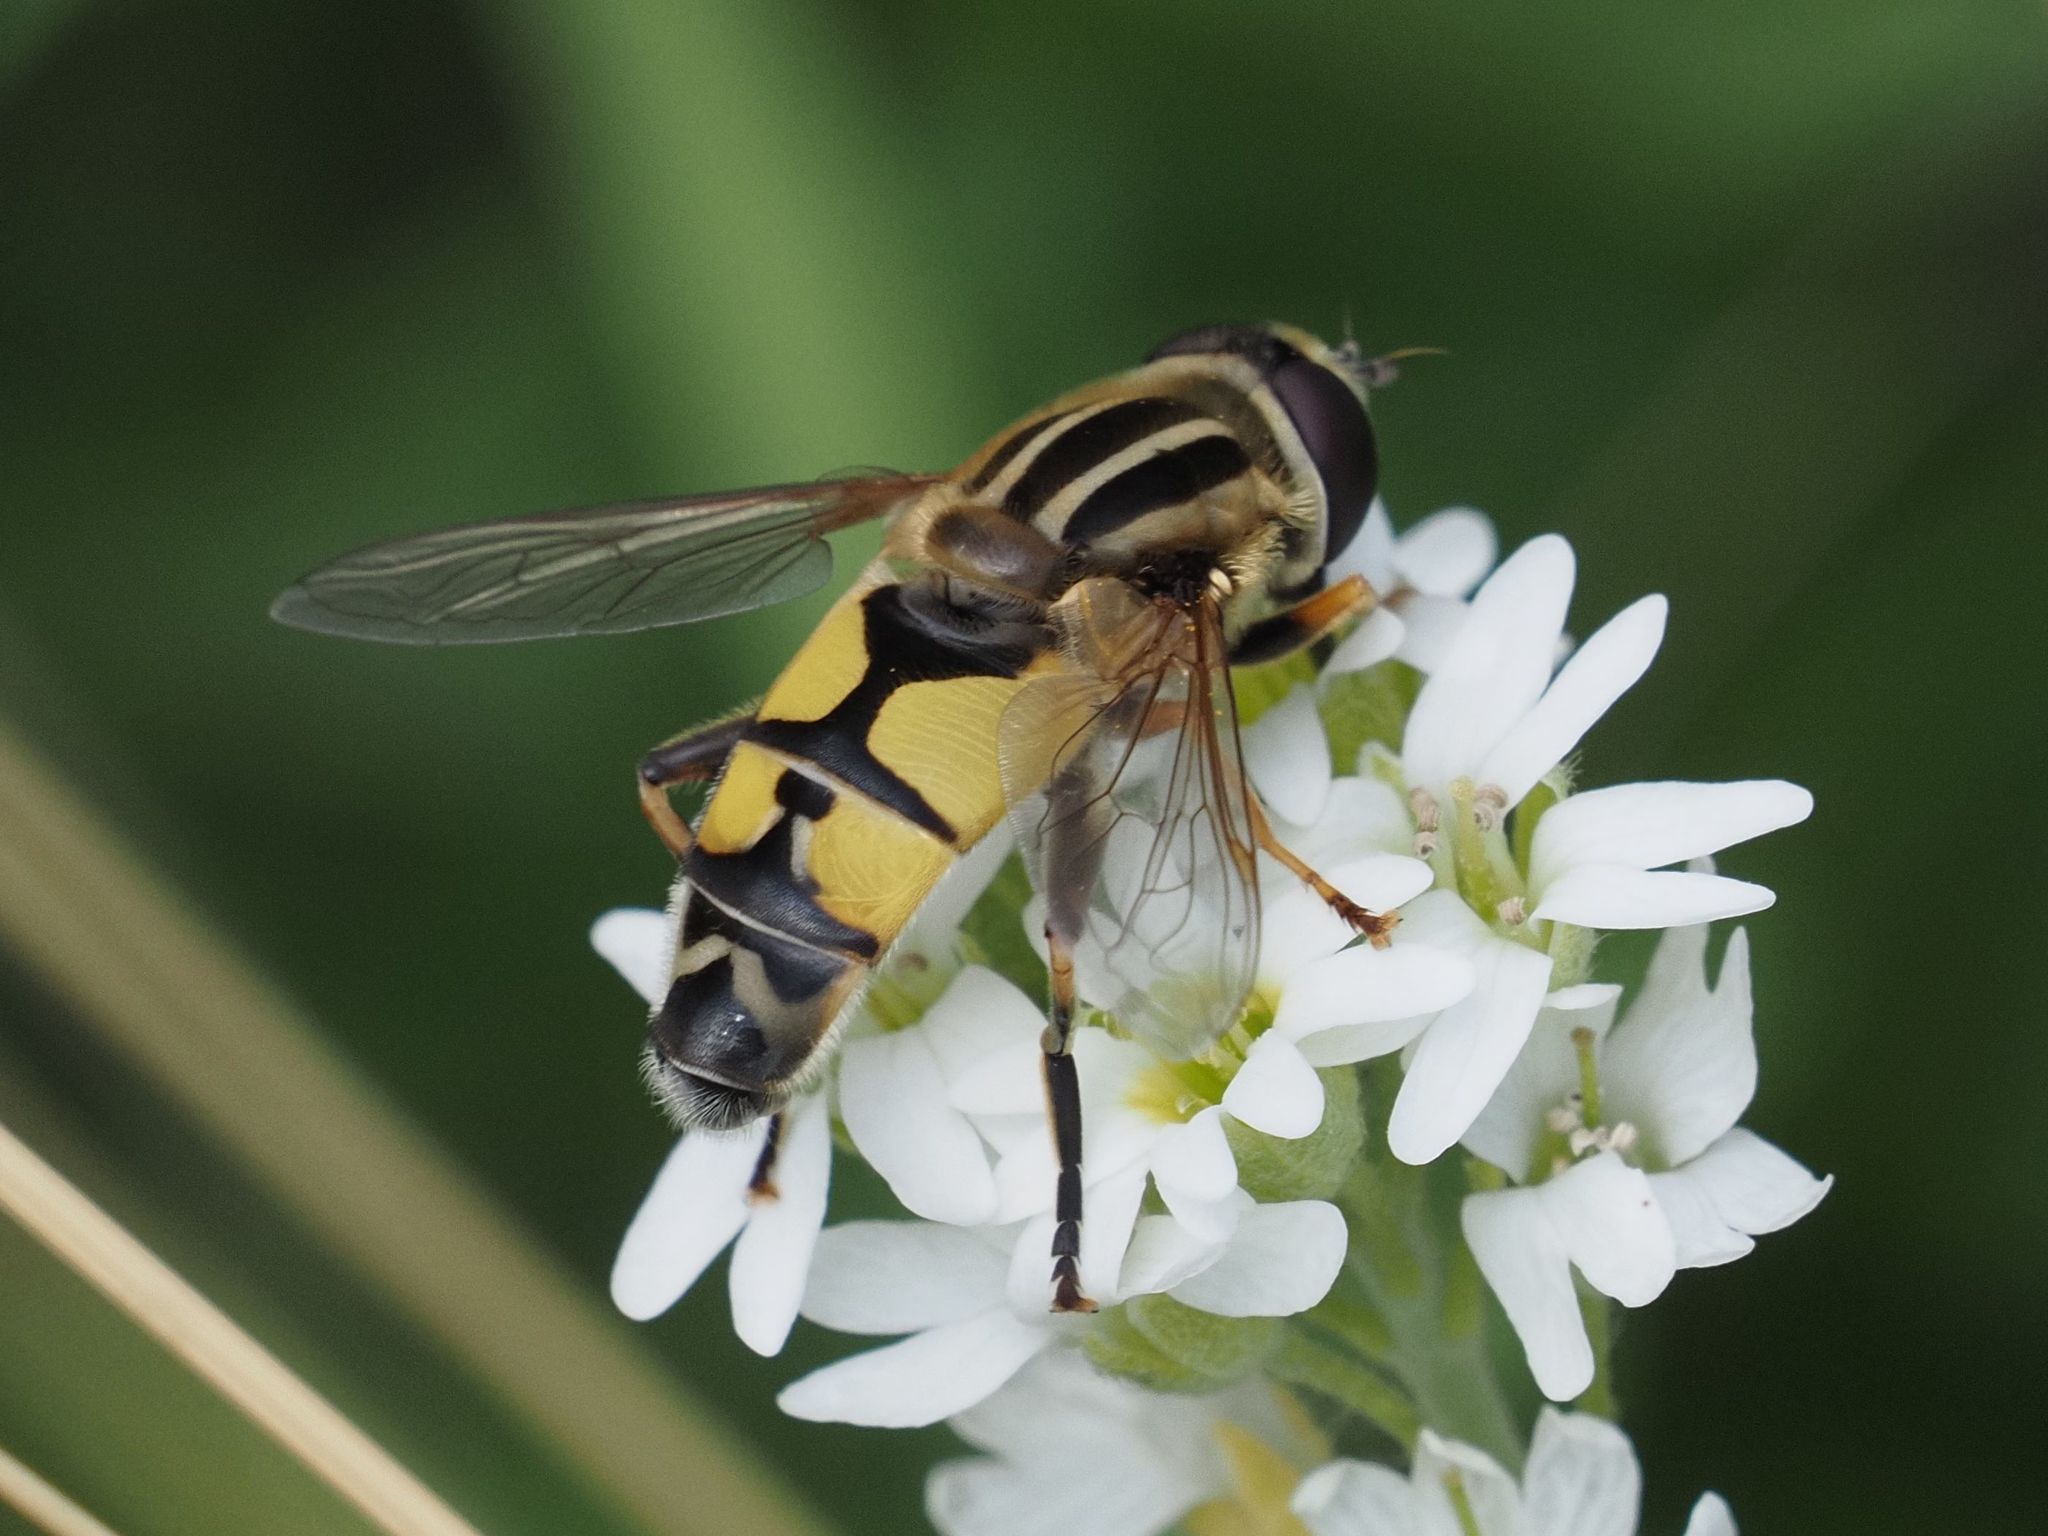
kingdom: Animalia
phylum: Arthropoda
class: Insecta
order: Diptera
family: Syrphidae
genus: Helophilus
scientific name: Helophilus trivittatus
